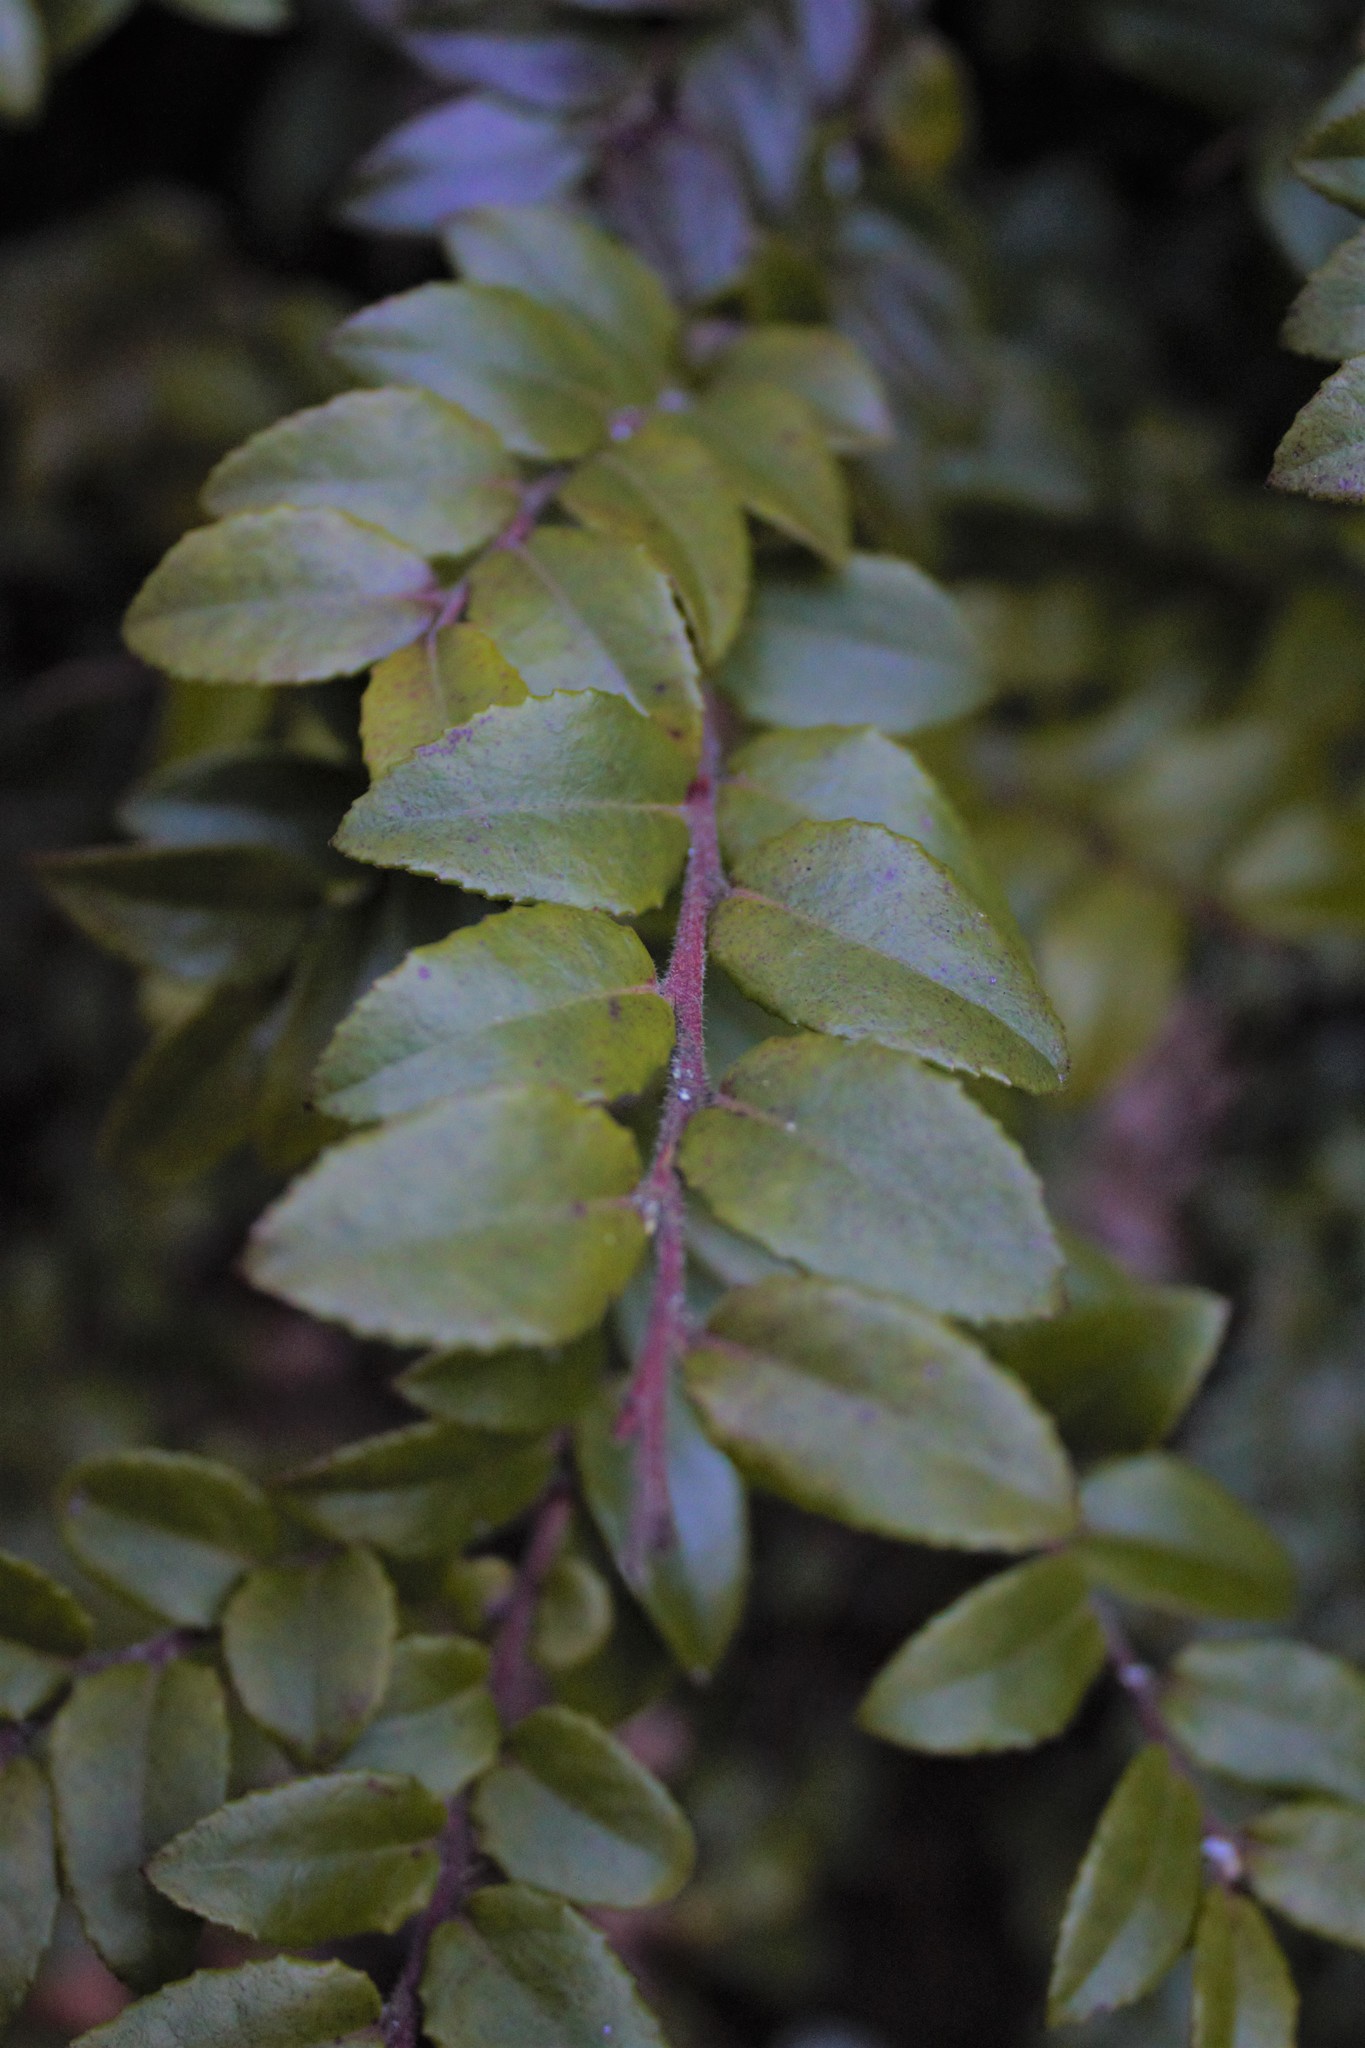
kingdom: Plantae
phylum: Tracheophyta
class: Magnoliopsida
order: Ericales
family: Ericaceae
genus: Vaccinium
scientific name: Vaccinium ovatum
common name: California-huckleberry
